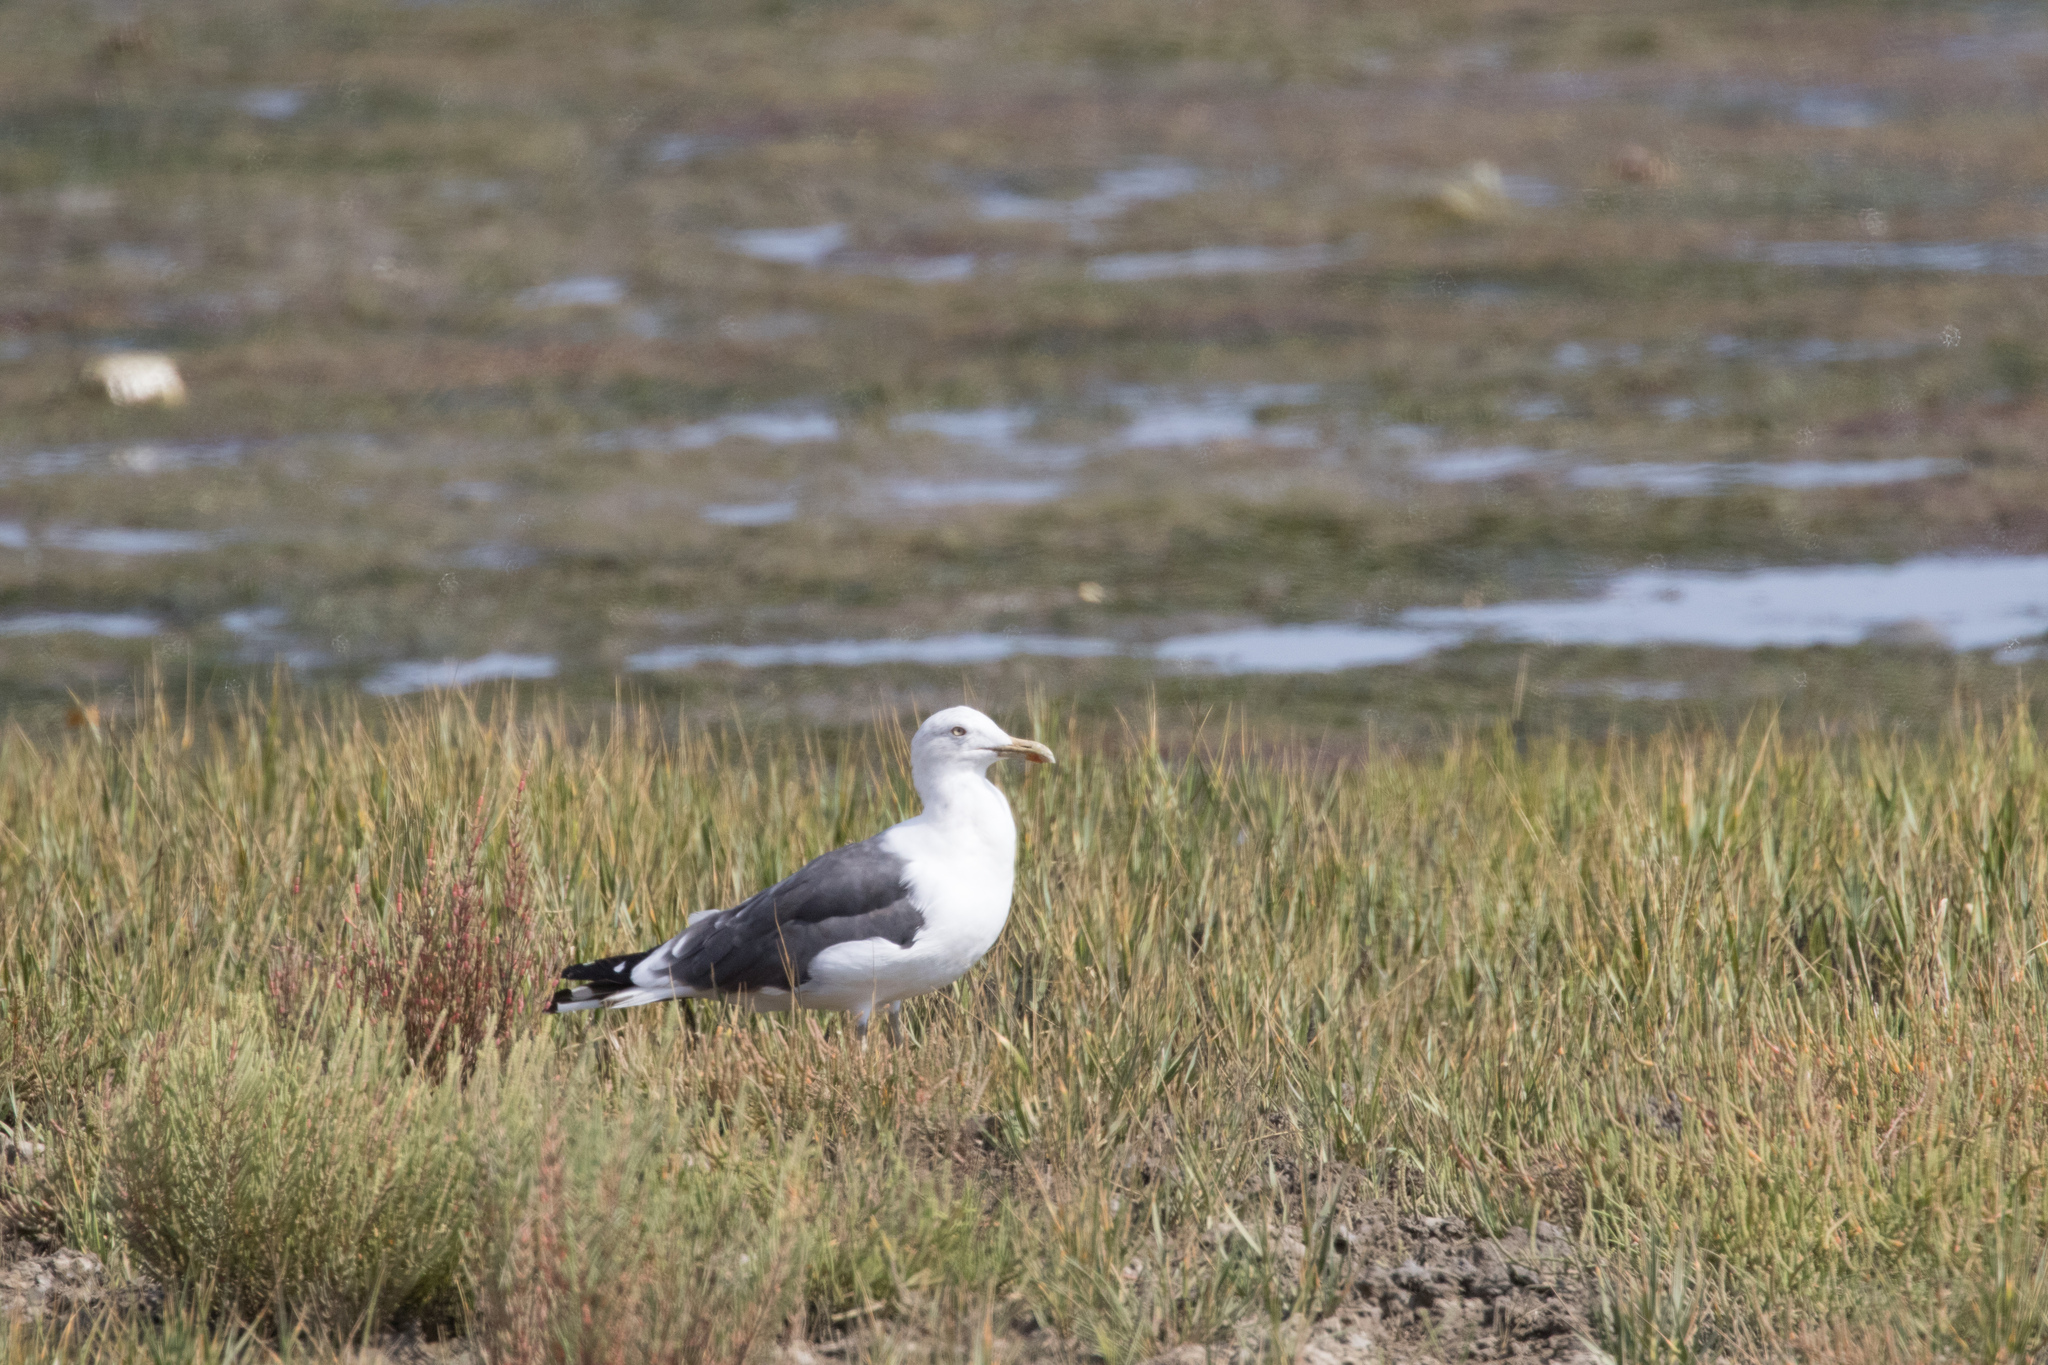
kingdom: Animalia
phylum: Chordata
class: Aves
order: Charadriiformes
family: Laridae
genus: Larus
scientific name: Larus fuscus
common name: Lesser black-backed gull
